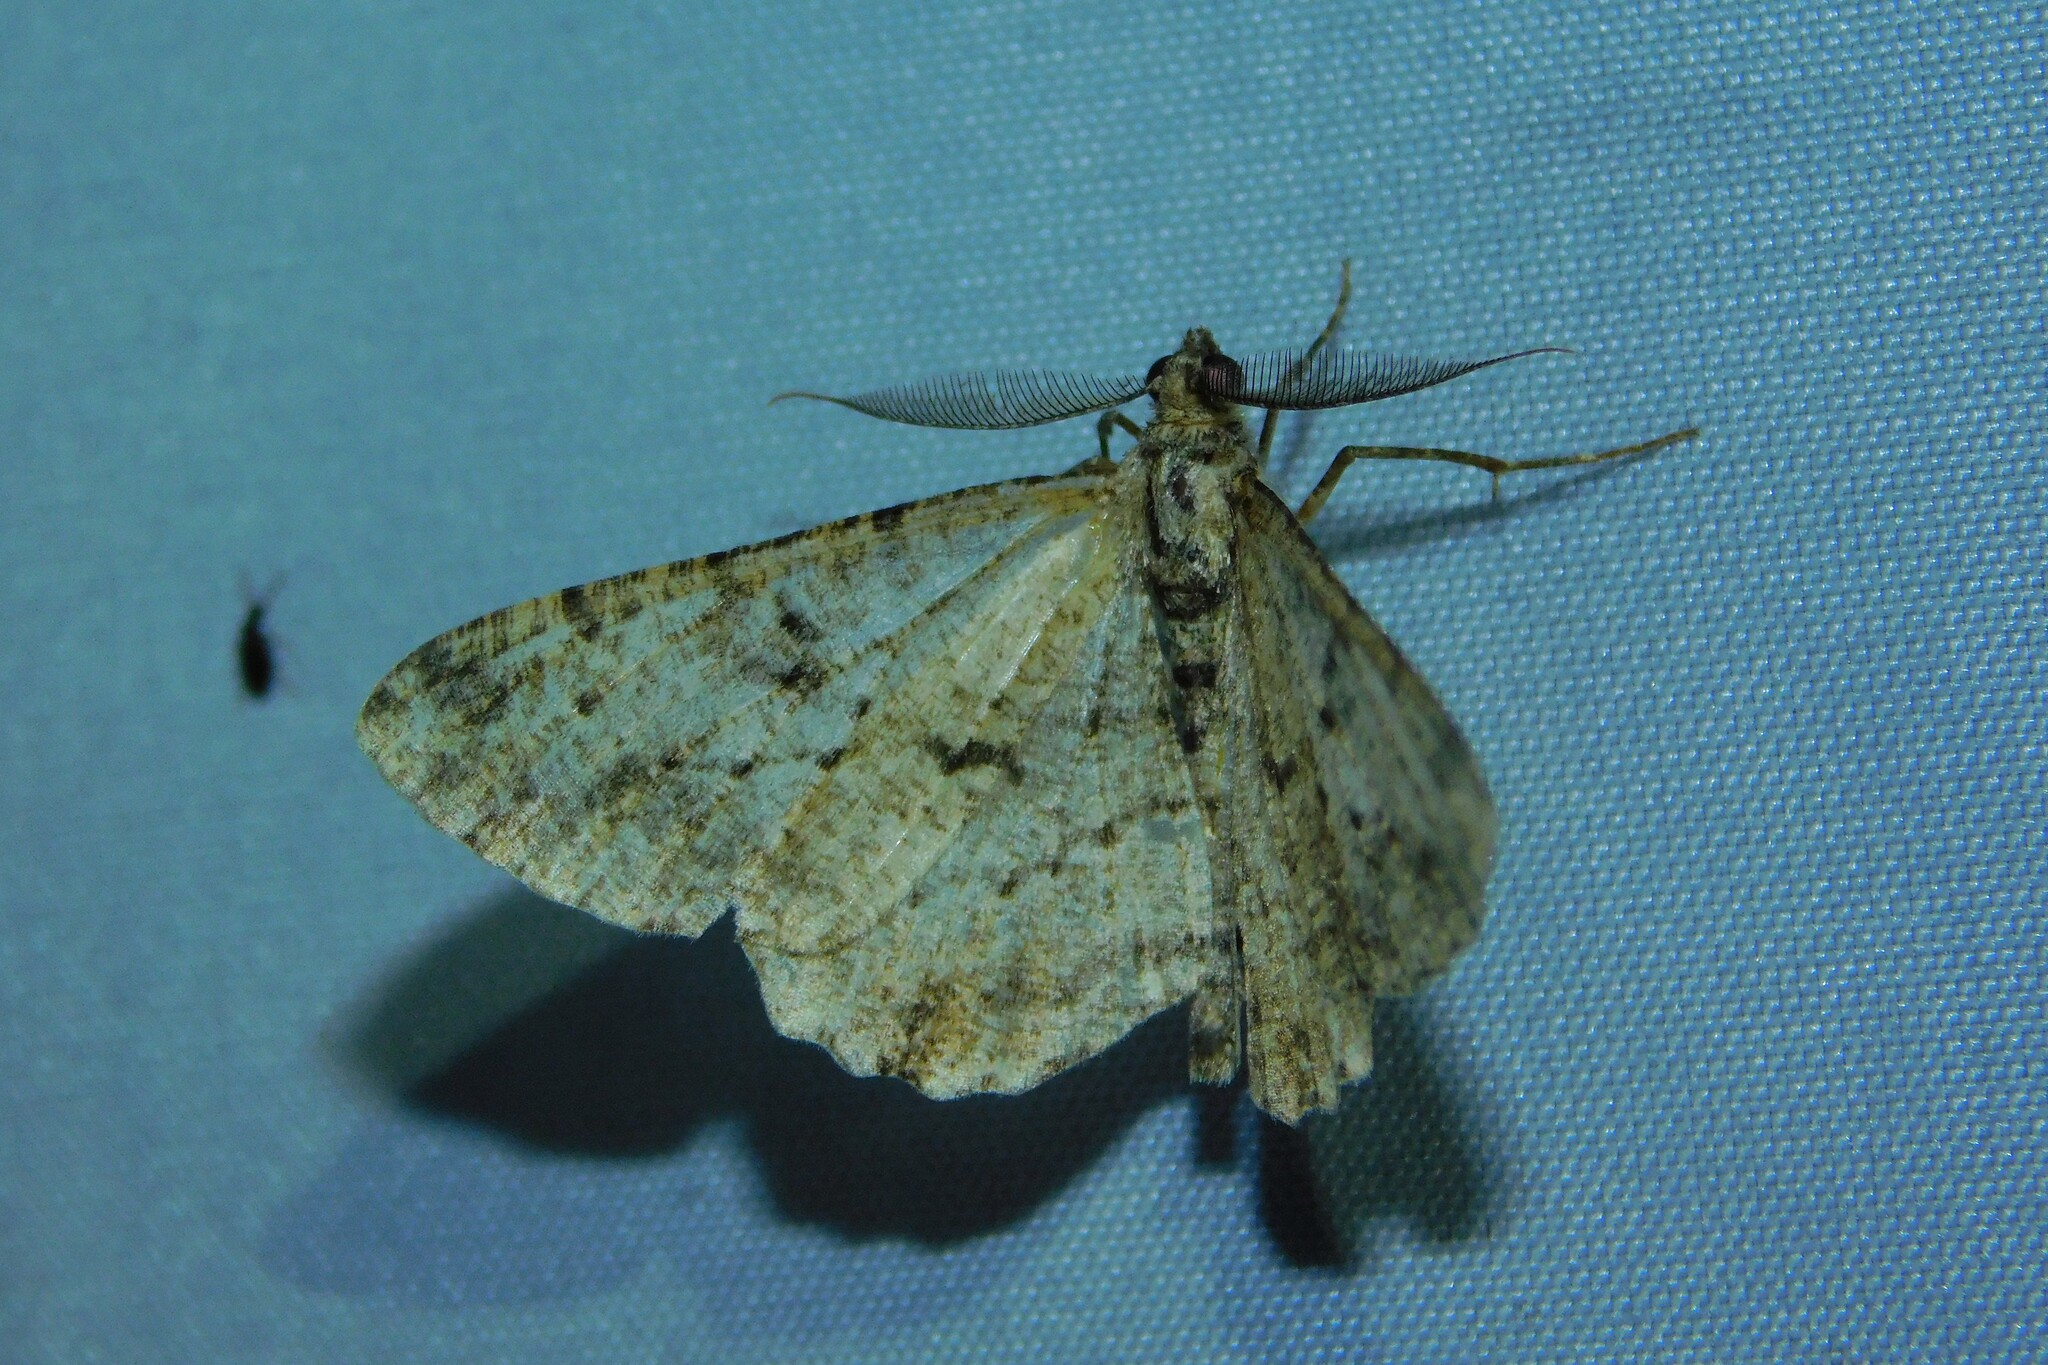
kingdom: Animalia
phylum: Arthropoda
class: Insecta
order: Lepidoptera
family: Geometridae
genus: Peribatodes
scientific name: Peribatodes rhomboidaria
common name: Willow beauty
